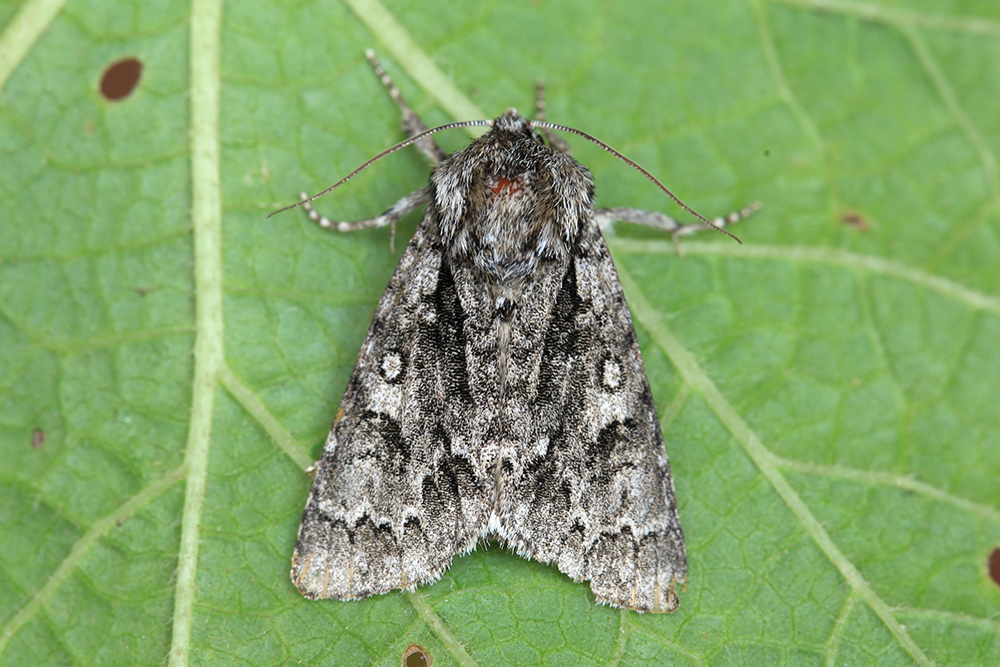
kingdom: Animalia
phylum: Arthropoda
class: Insecta
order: Lepidoptera
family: Noctuidae
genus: Acronicta
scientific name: Acronicta auricoma
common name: Scarce dagger
